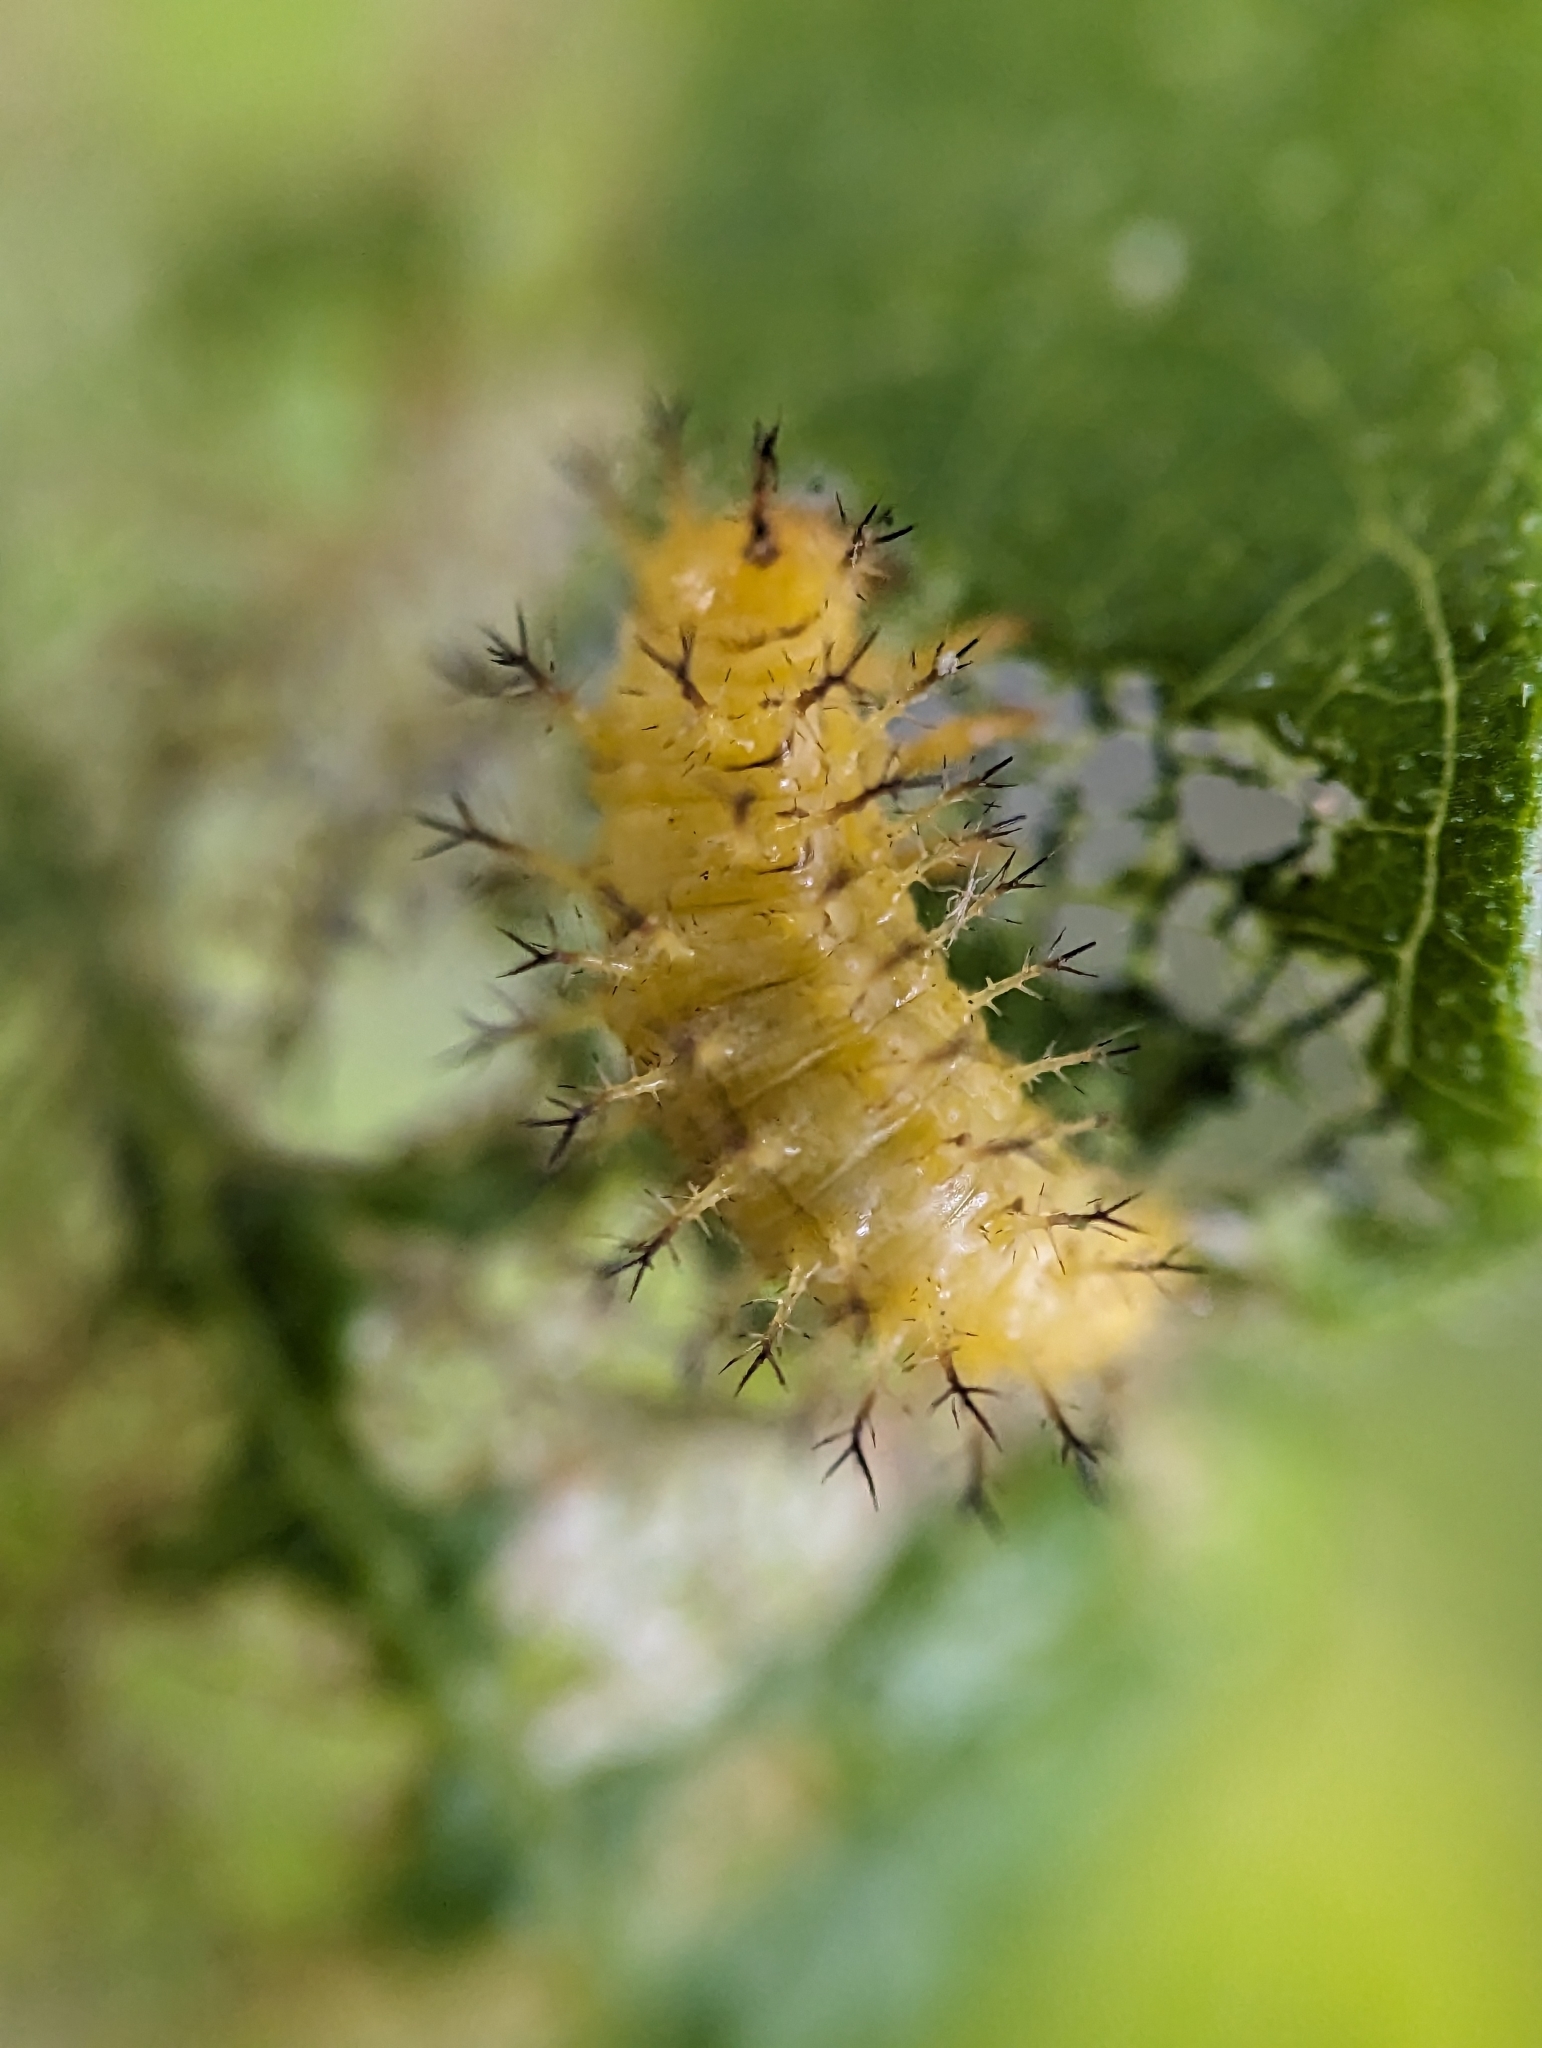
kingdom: Animalia
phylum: Arthropoda
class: Insecta
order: Coleoptera
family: Coccinellidae
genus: Epilachna
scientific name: Epilachna varivestis
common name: Ladybird beetle
